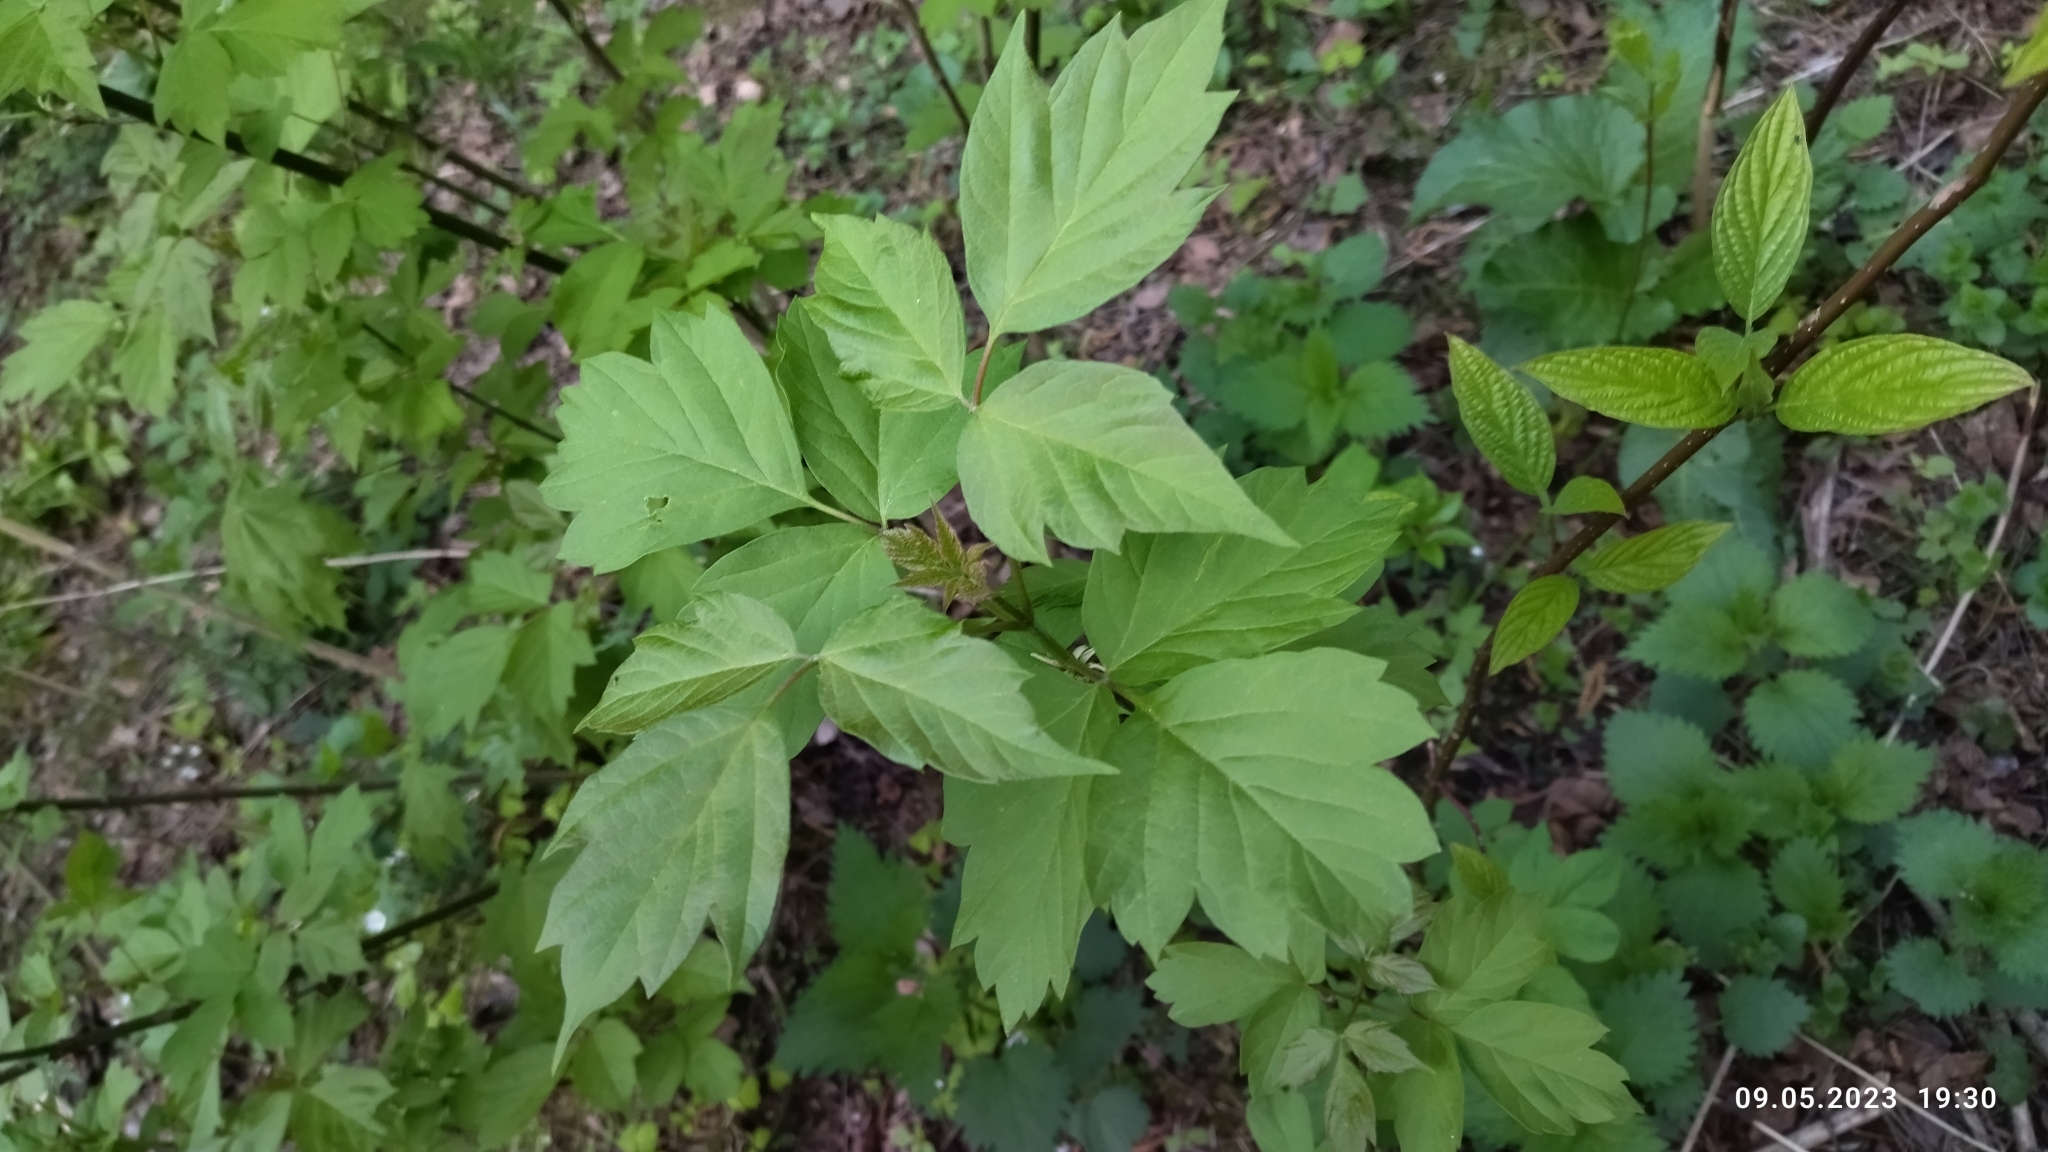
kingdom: Plantae
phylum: Tracheophyta
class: Magnoliopsida
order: Sapindales
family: Sapindaceae
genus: Acer
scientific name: Acer negundo
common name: Ashleaf maple
